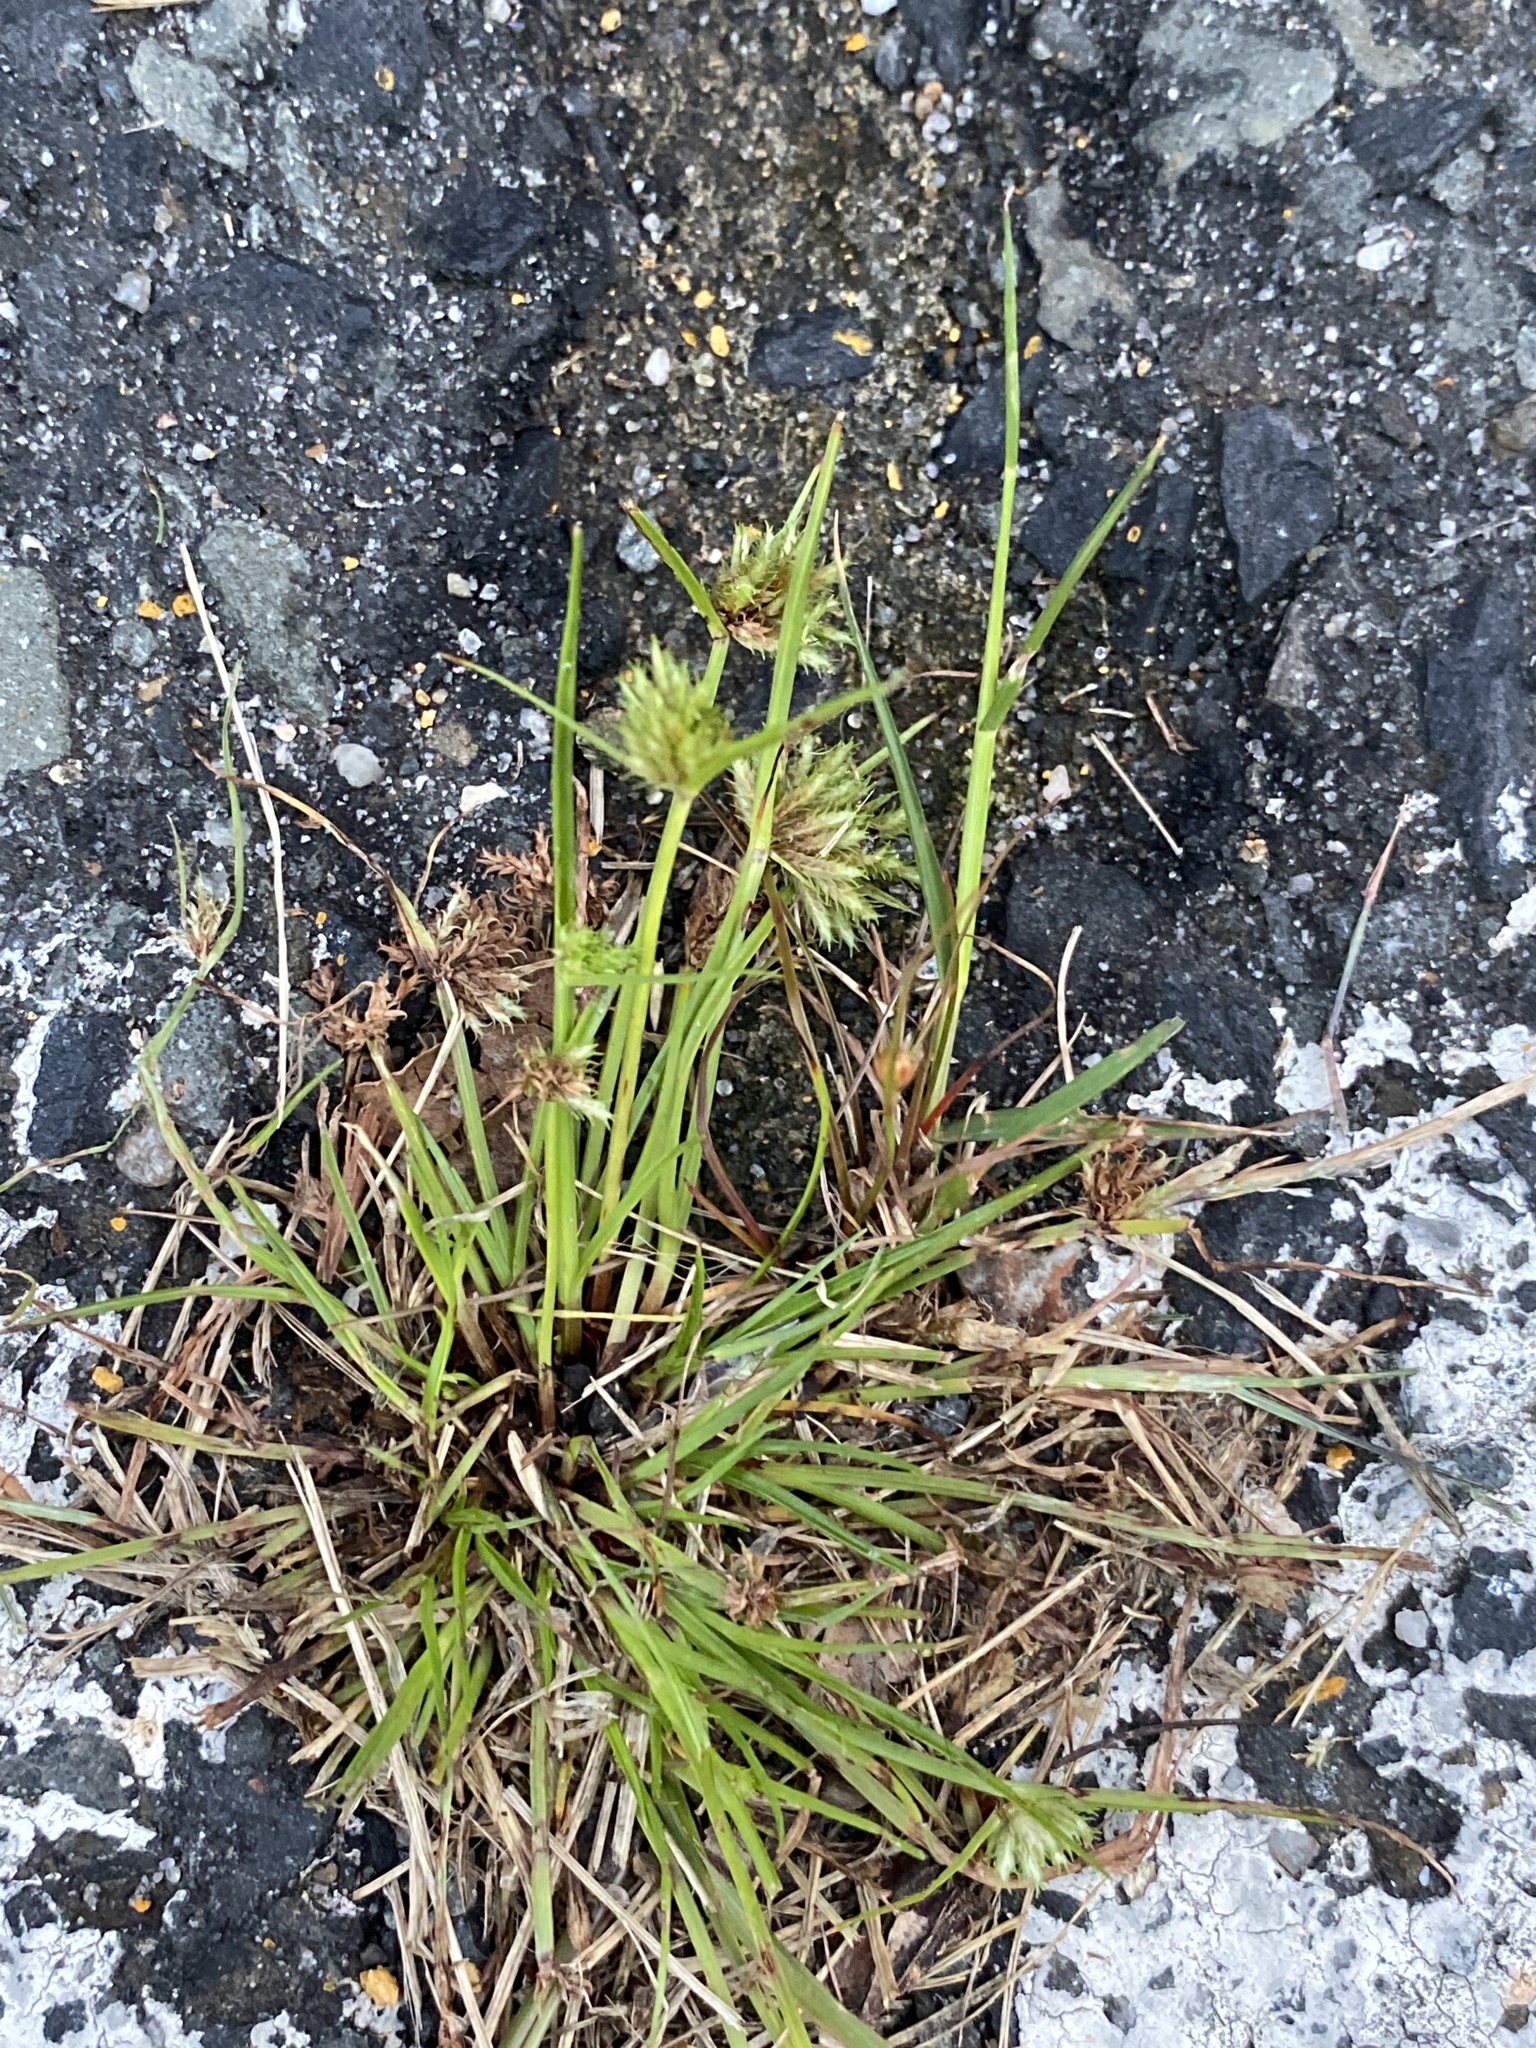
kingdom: Plantae
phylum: Tracheophyta
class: Liliopsida
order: Poales
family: Cyperaceae
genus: Cyperus
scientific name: Cyperus squarrosus
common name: Awned cyperus
